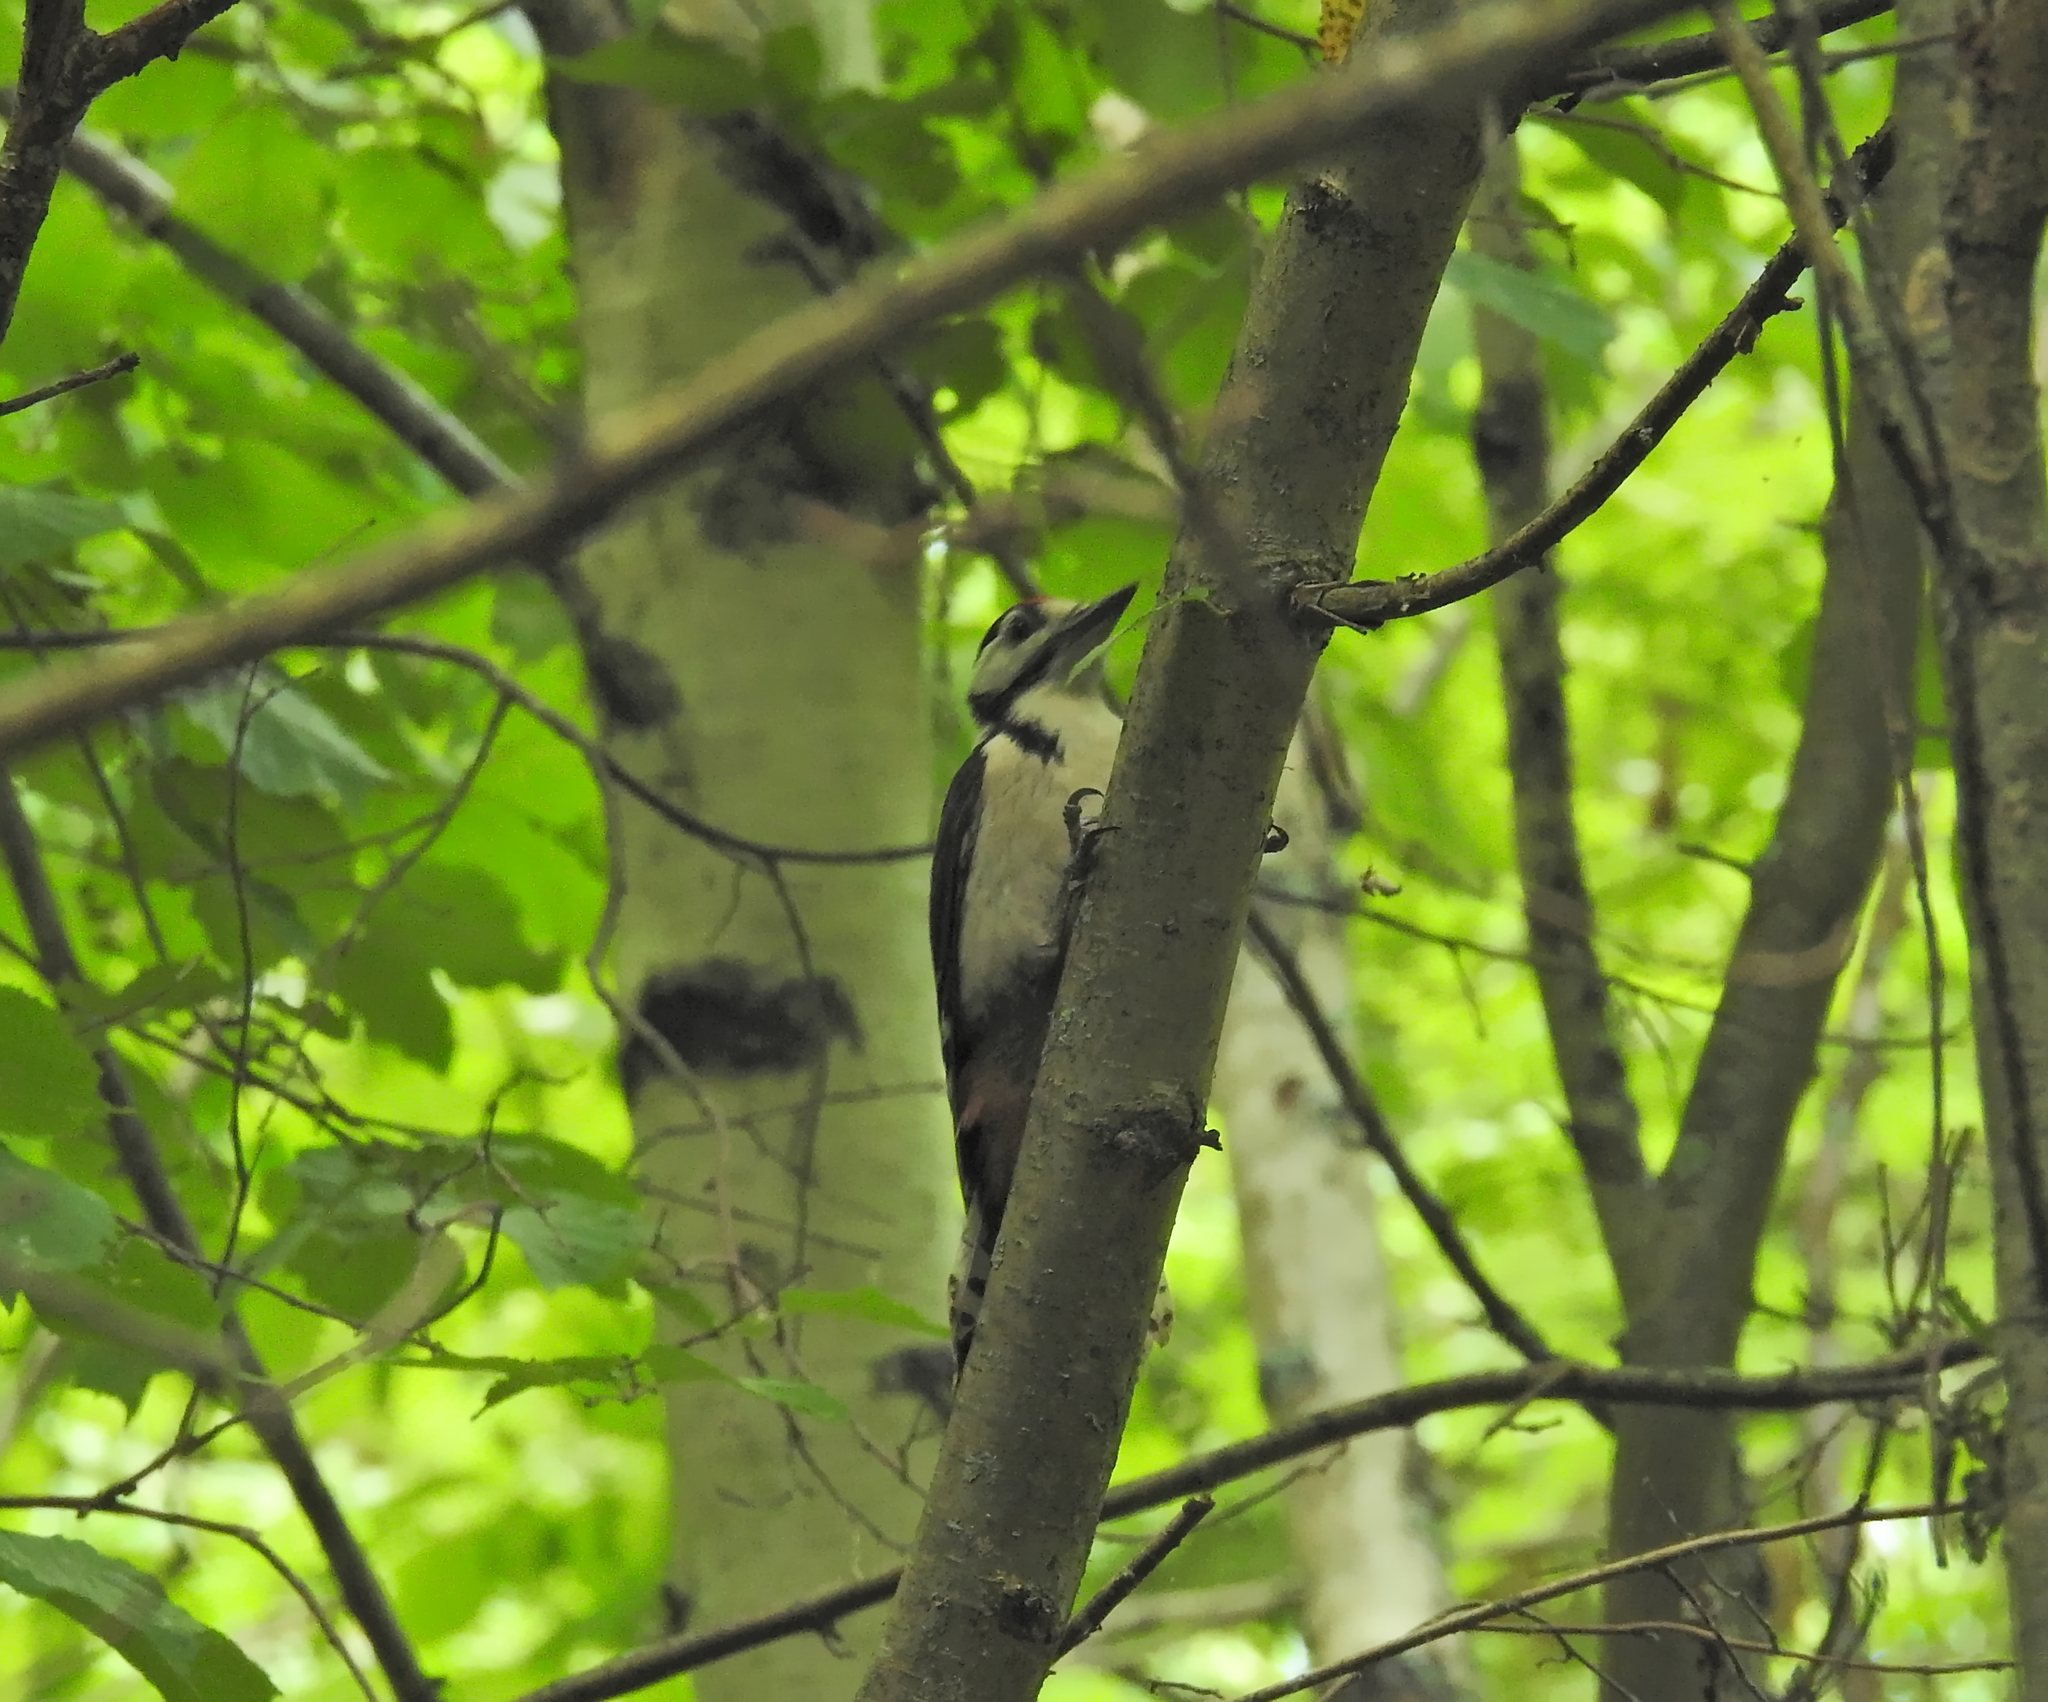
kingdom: Animalia
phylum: Chordata
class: Aves
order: Piciformes
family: Picidae
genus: Dendrocopos
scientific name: Dendrocopos major
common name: Great spotted woodpecker
